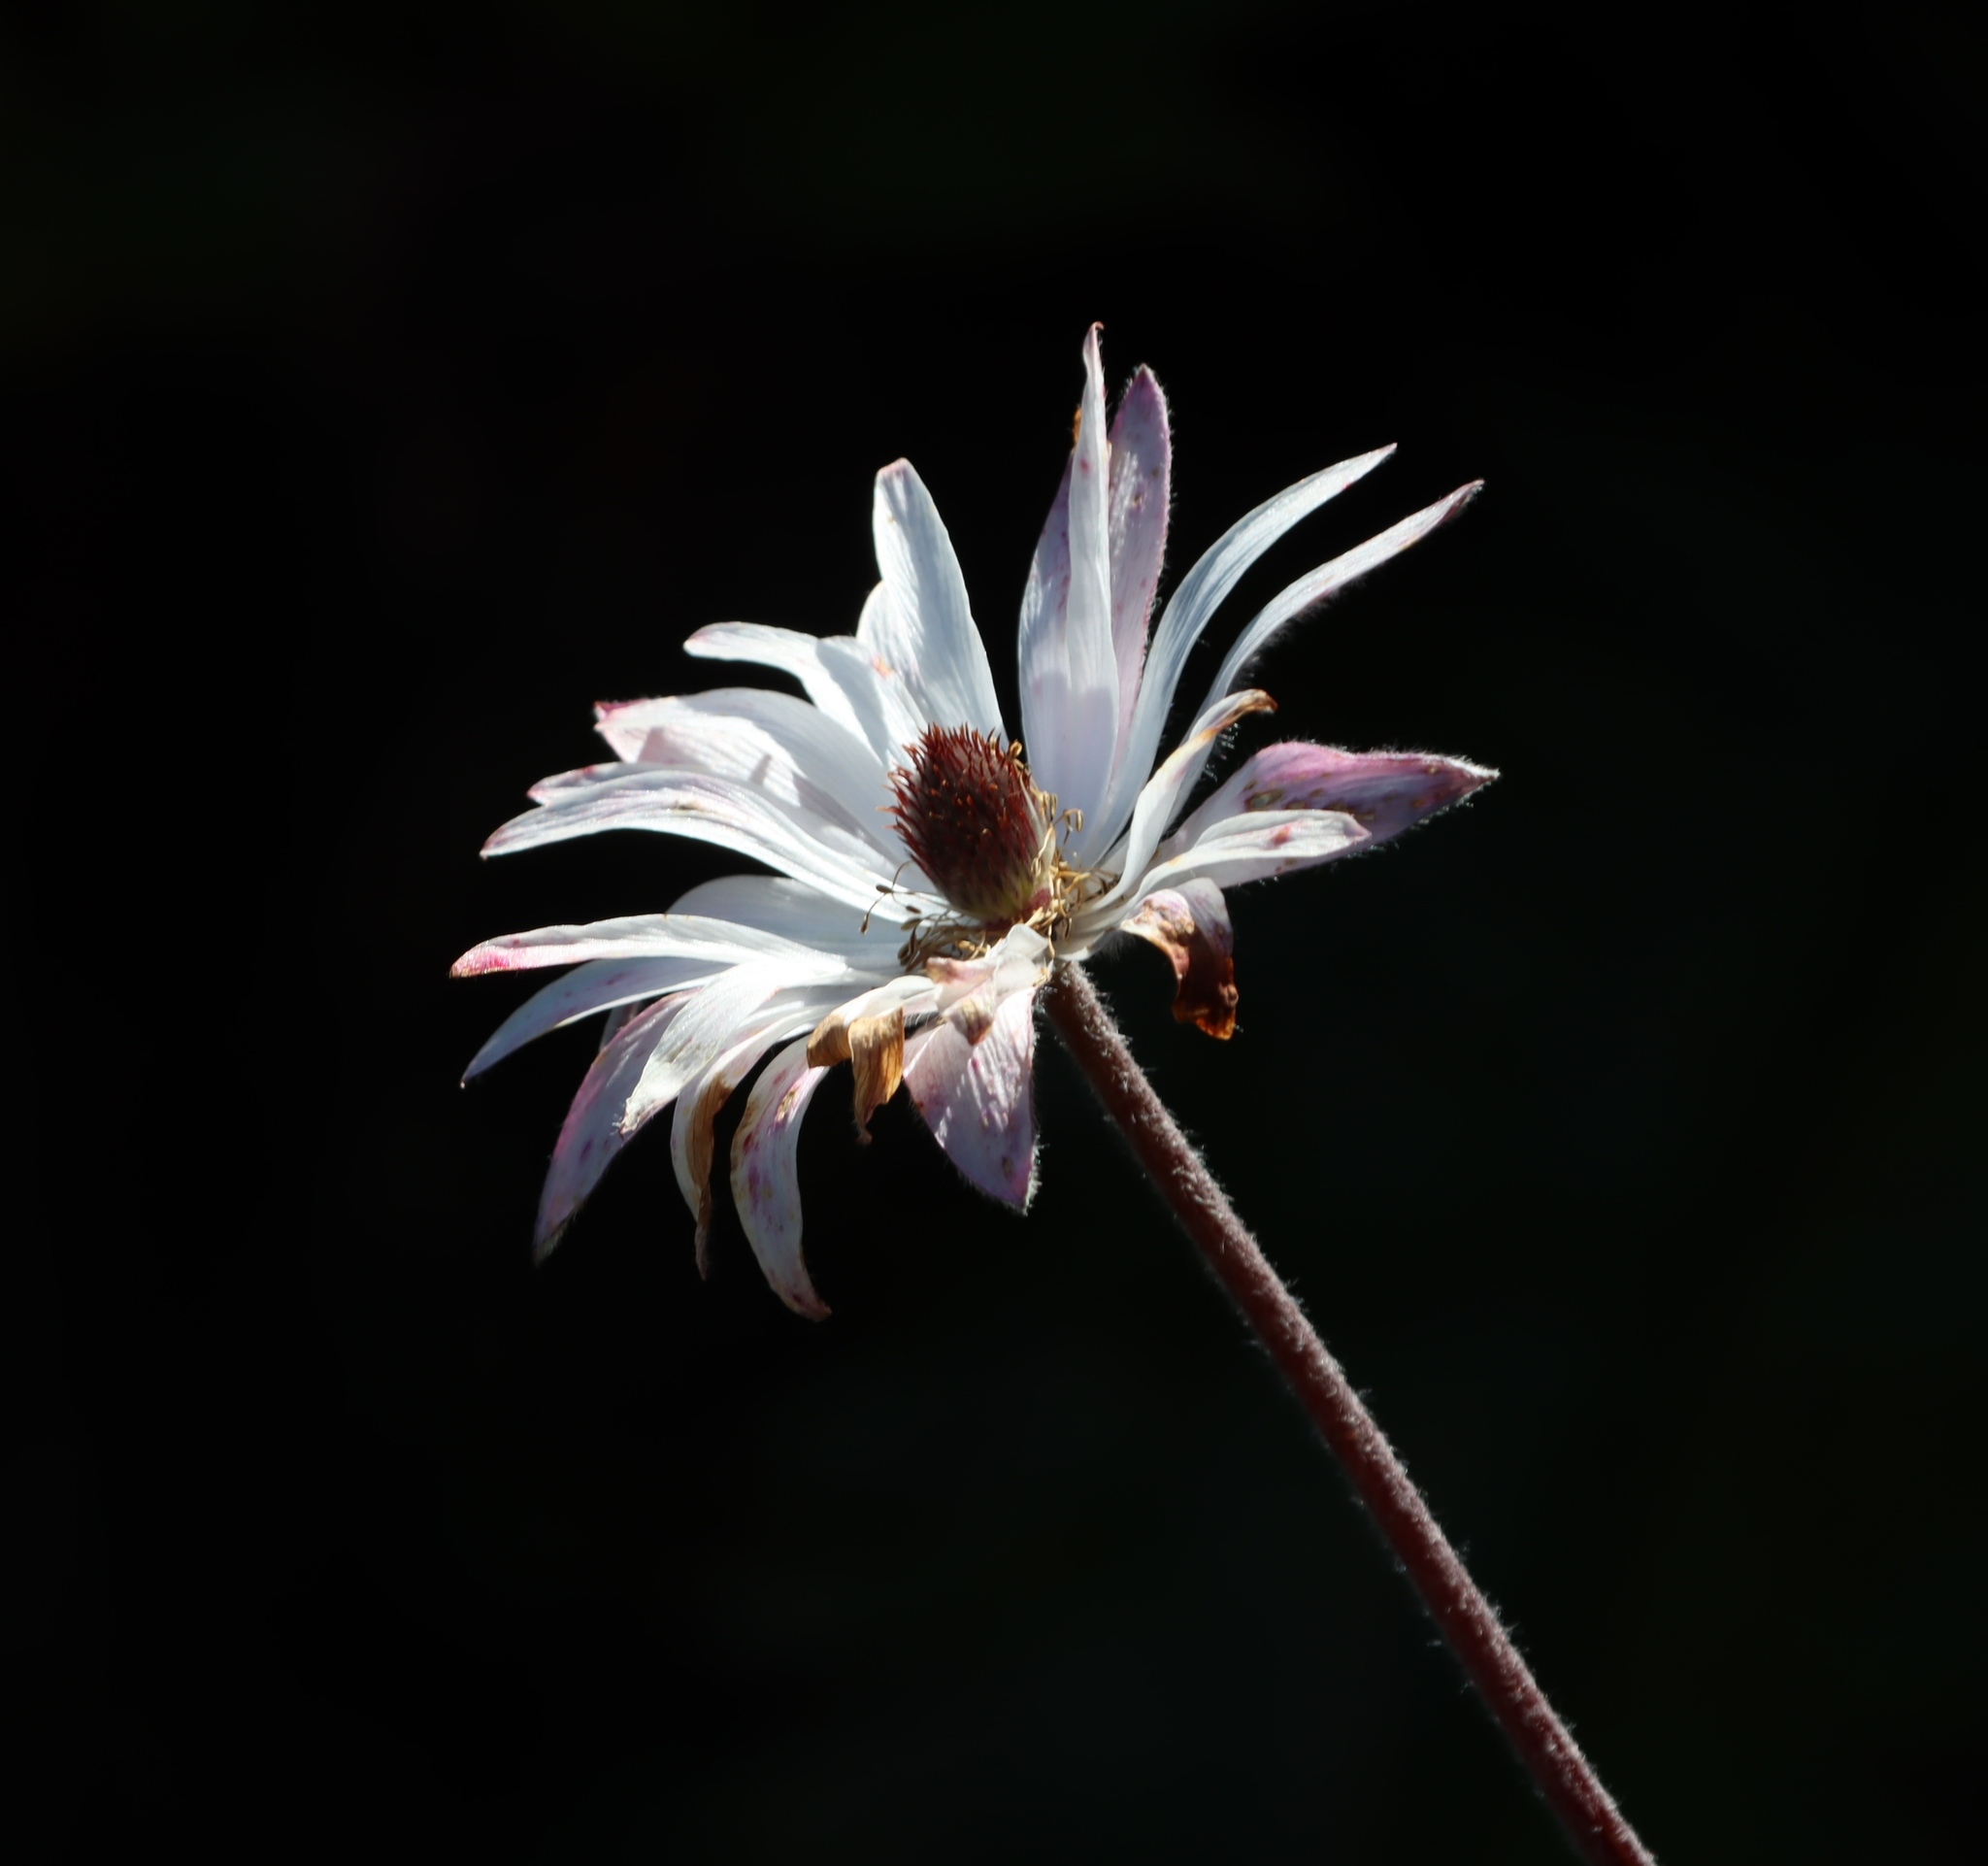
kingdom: Plantae
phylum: Tracheophyta
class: Magnoliopsida
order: Ranunculales
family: Ranunculaceae
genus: Knowltonia
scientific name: Knowltonia tenuifolia
